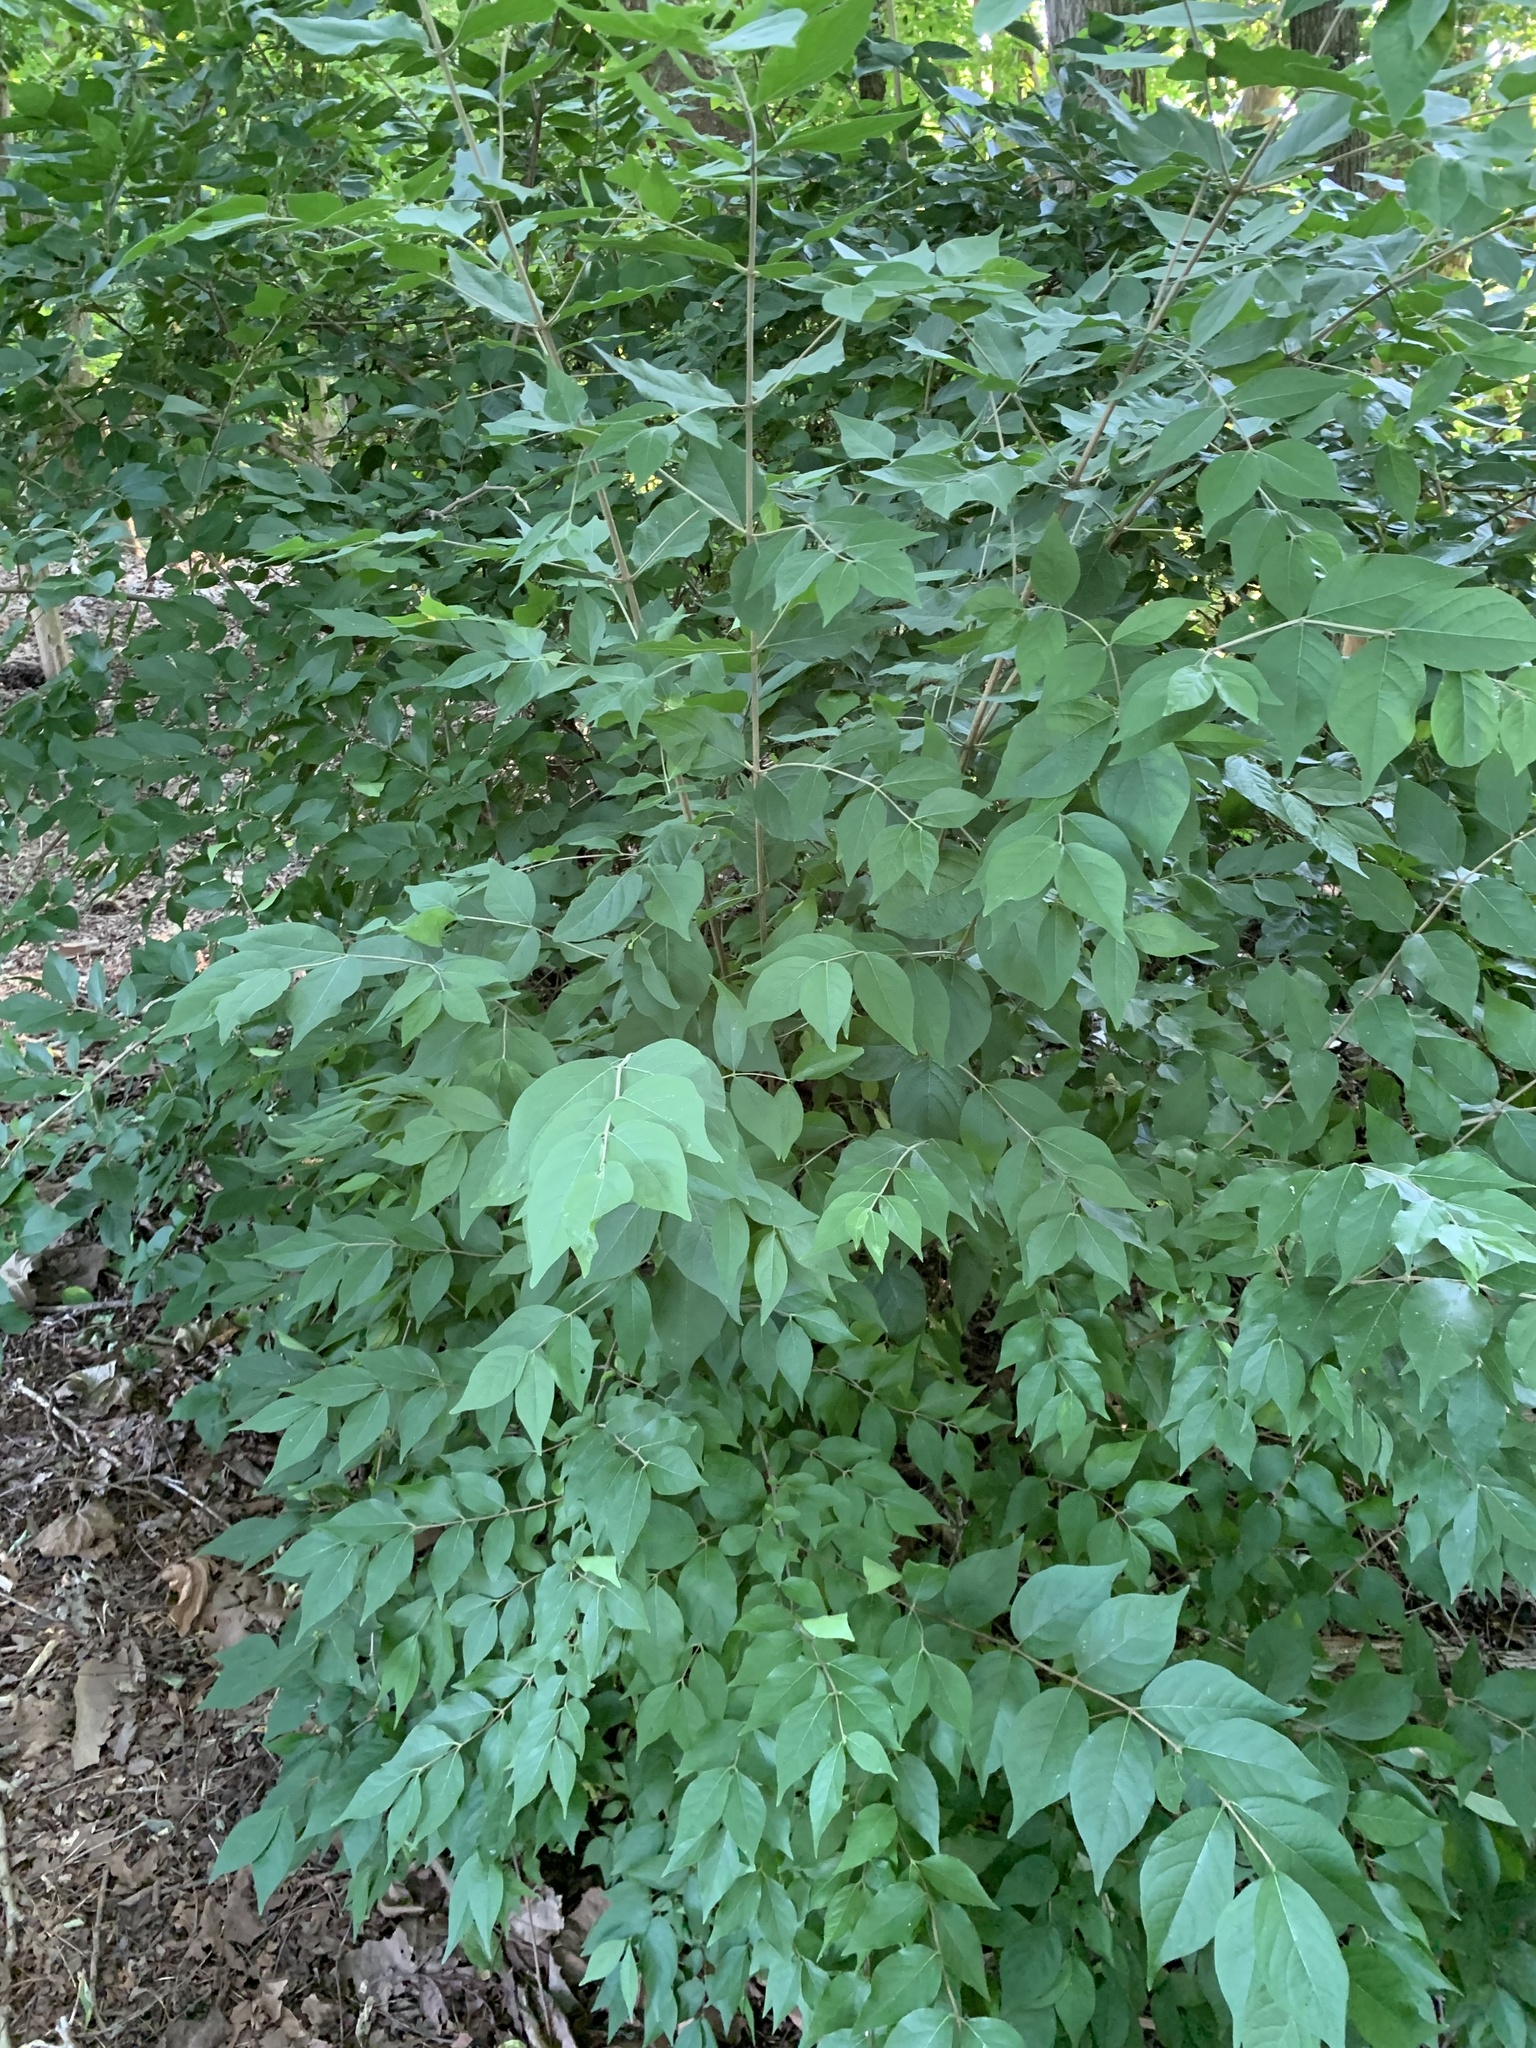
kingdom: Plantae
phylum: Tracheophyta
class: Magnoliopsida
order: Dipsacales
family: Caprifoliaceae
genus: Lonicera
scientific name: Lonicera maackii
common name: Amur honeysuckle
